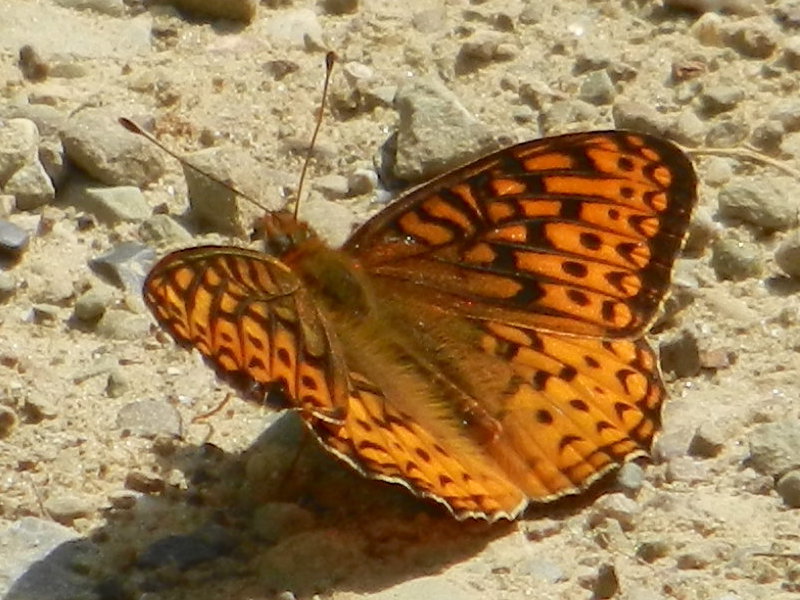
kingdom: Animalia
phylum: Arthropoda
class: Insecta
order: Lepidoptera
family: Nymphalidae
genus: Speyeria
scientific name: Speyeria atlantis
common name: Atlantis fritillary
